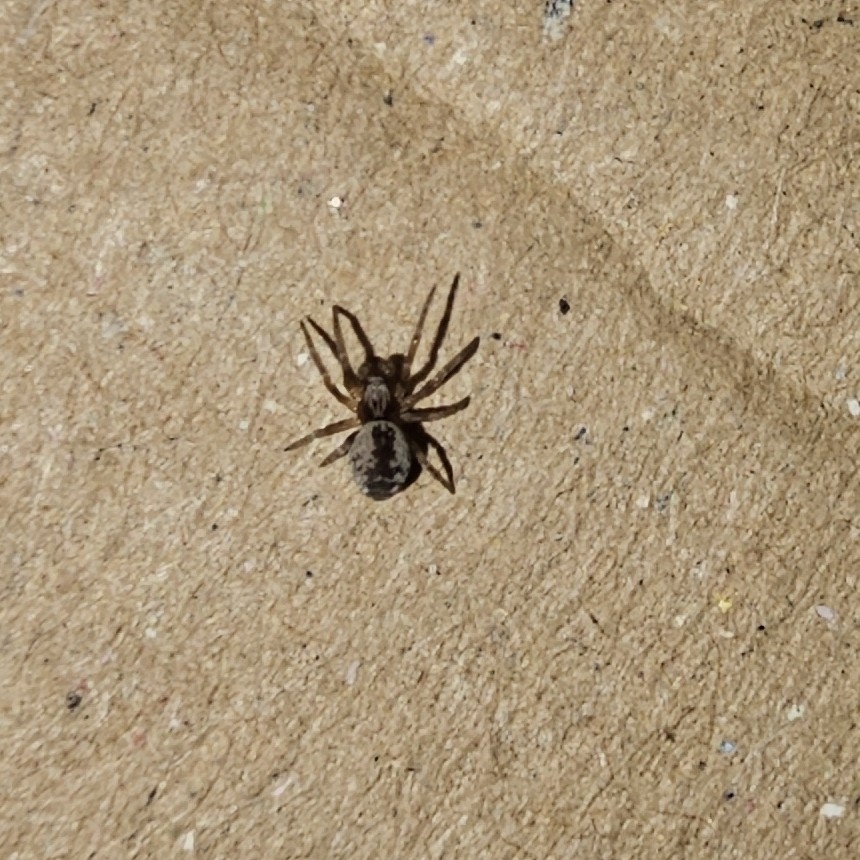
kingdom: Animalia
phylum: Arthropoda
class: Arachnida
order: Araneae
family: Dictynidae
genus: Brigittea
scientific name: Brigittea civica
